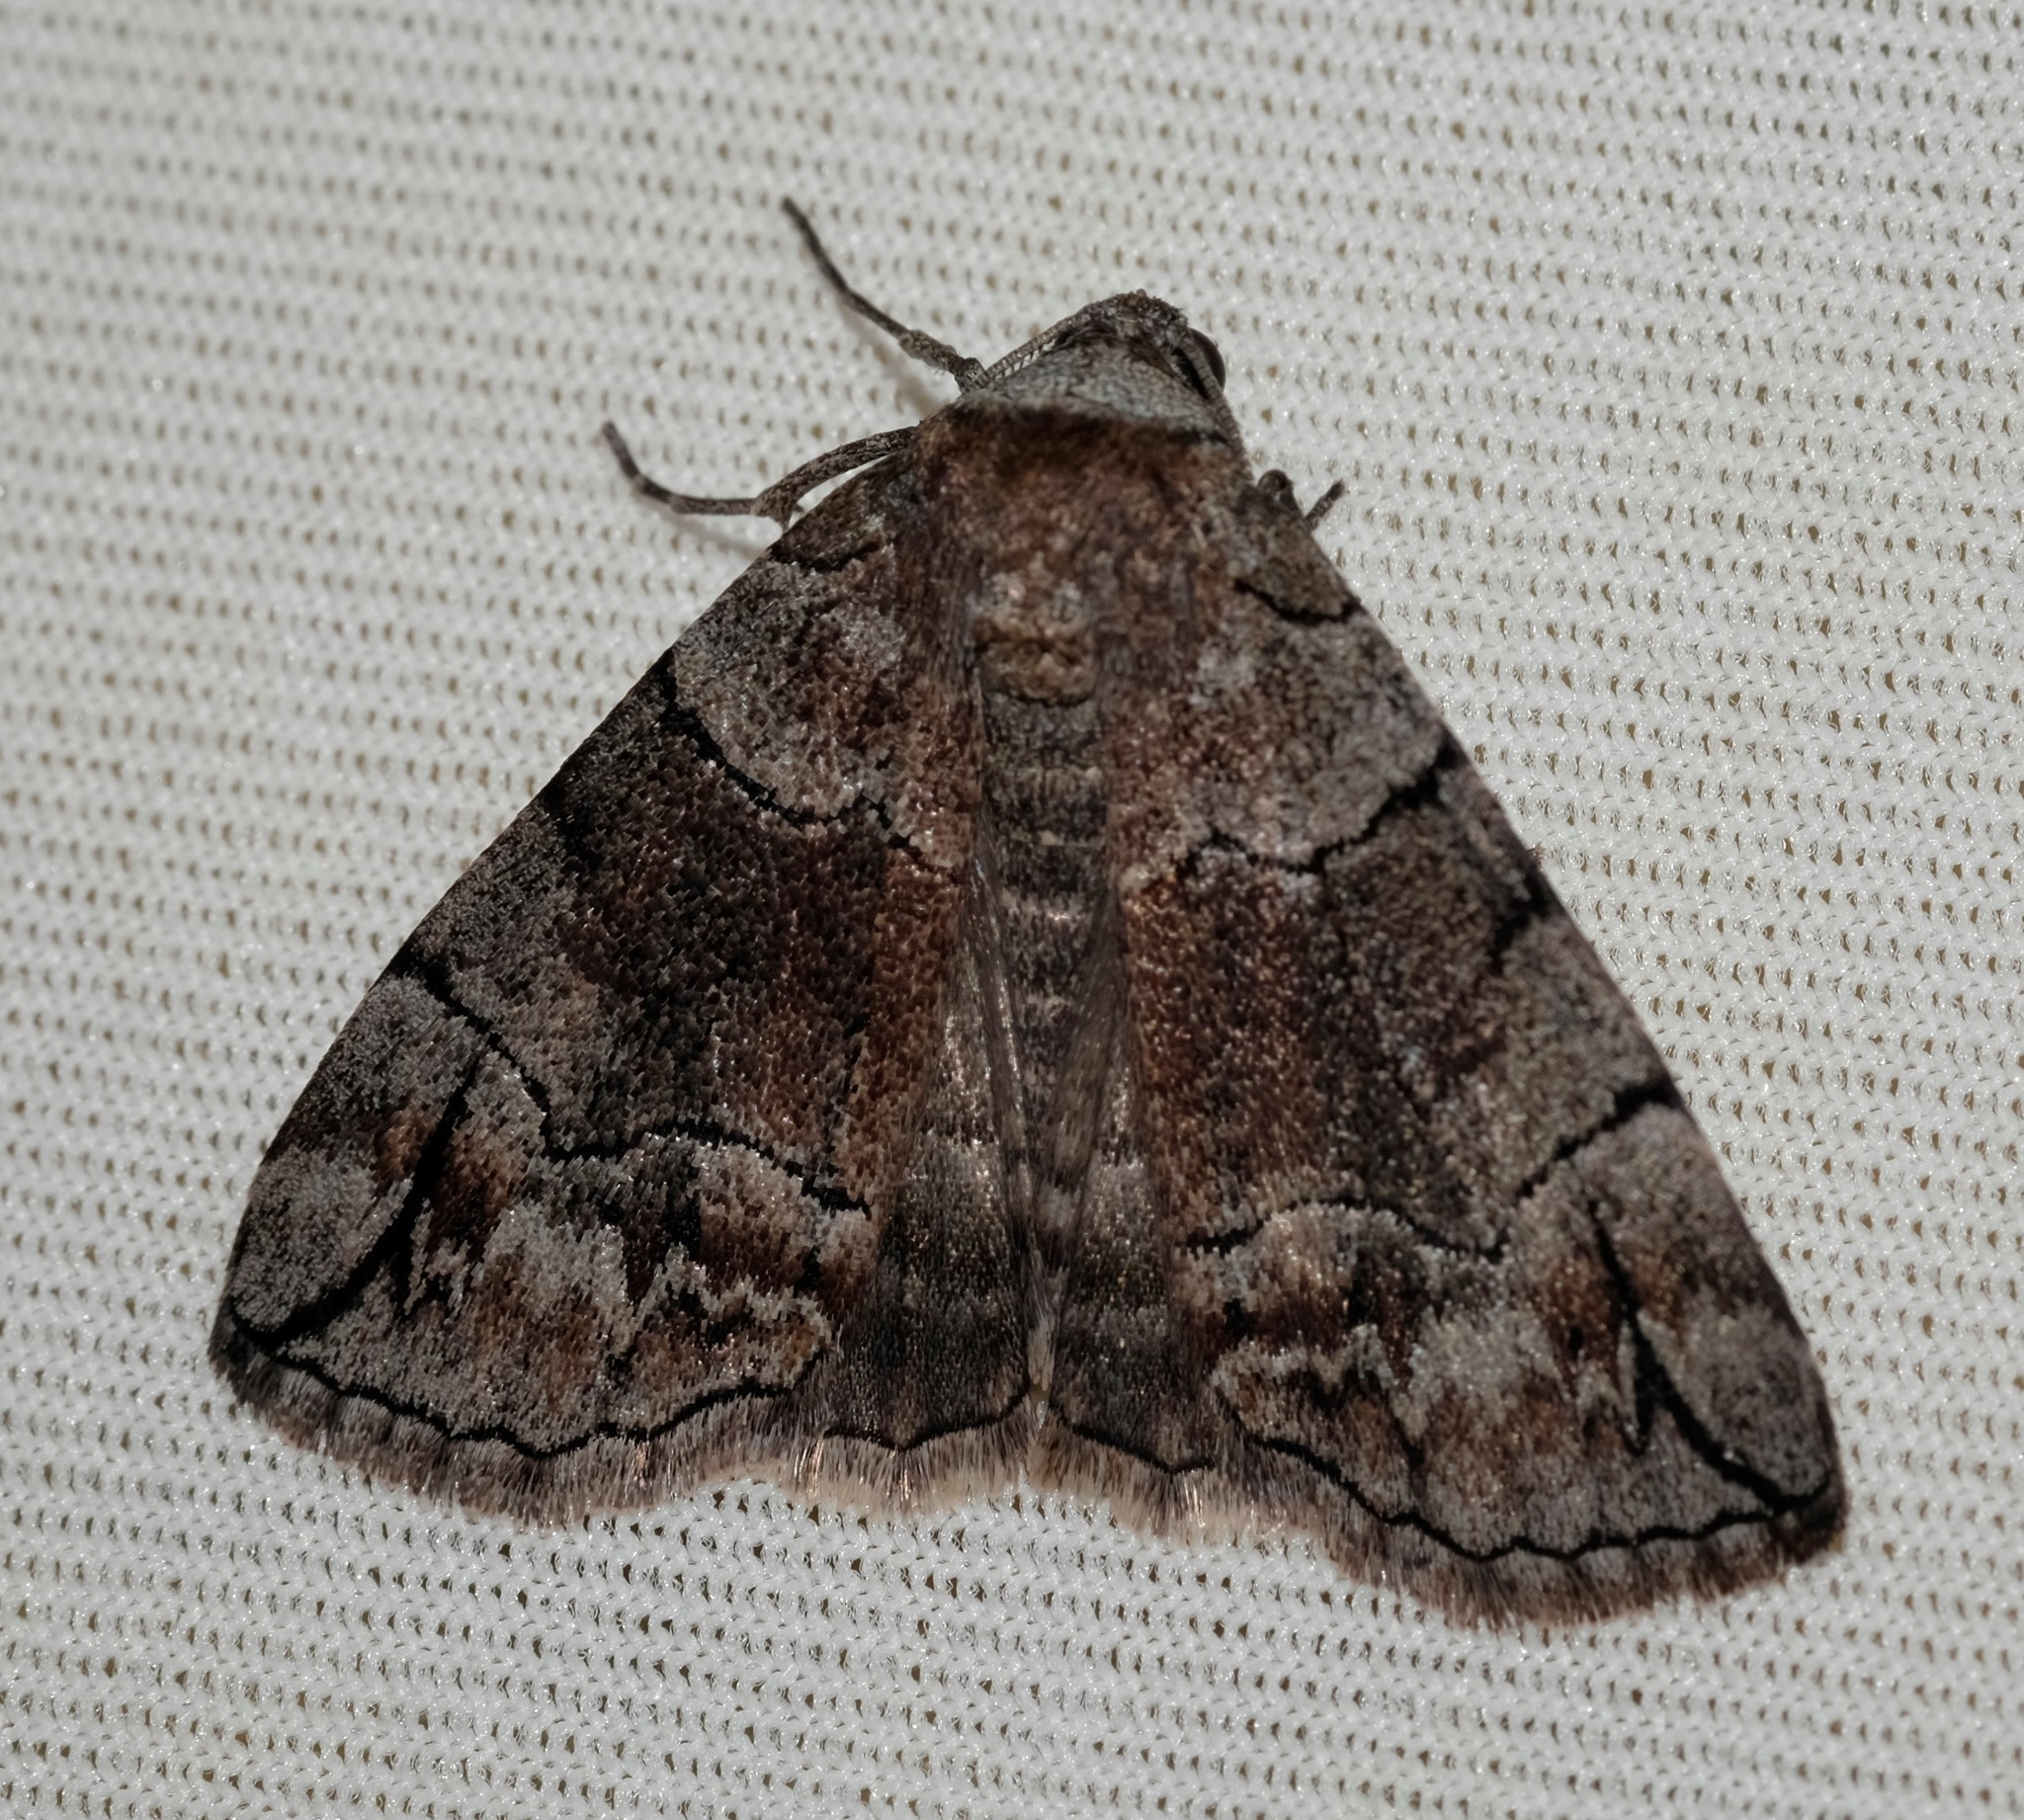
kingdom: Animalia
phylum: Arthropoda
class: Insecta
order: Lepidoptera
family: Geometridae
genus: Dysbatus
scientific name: Dysbatus stenodesma
